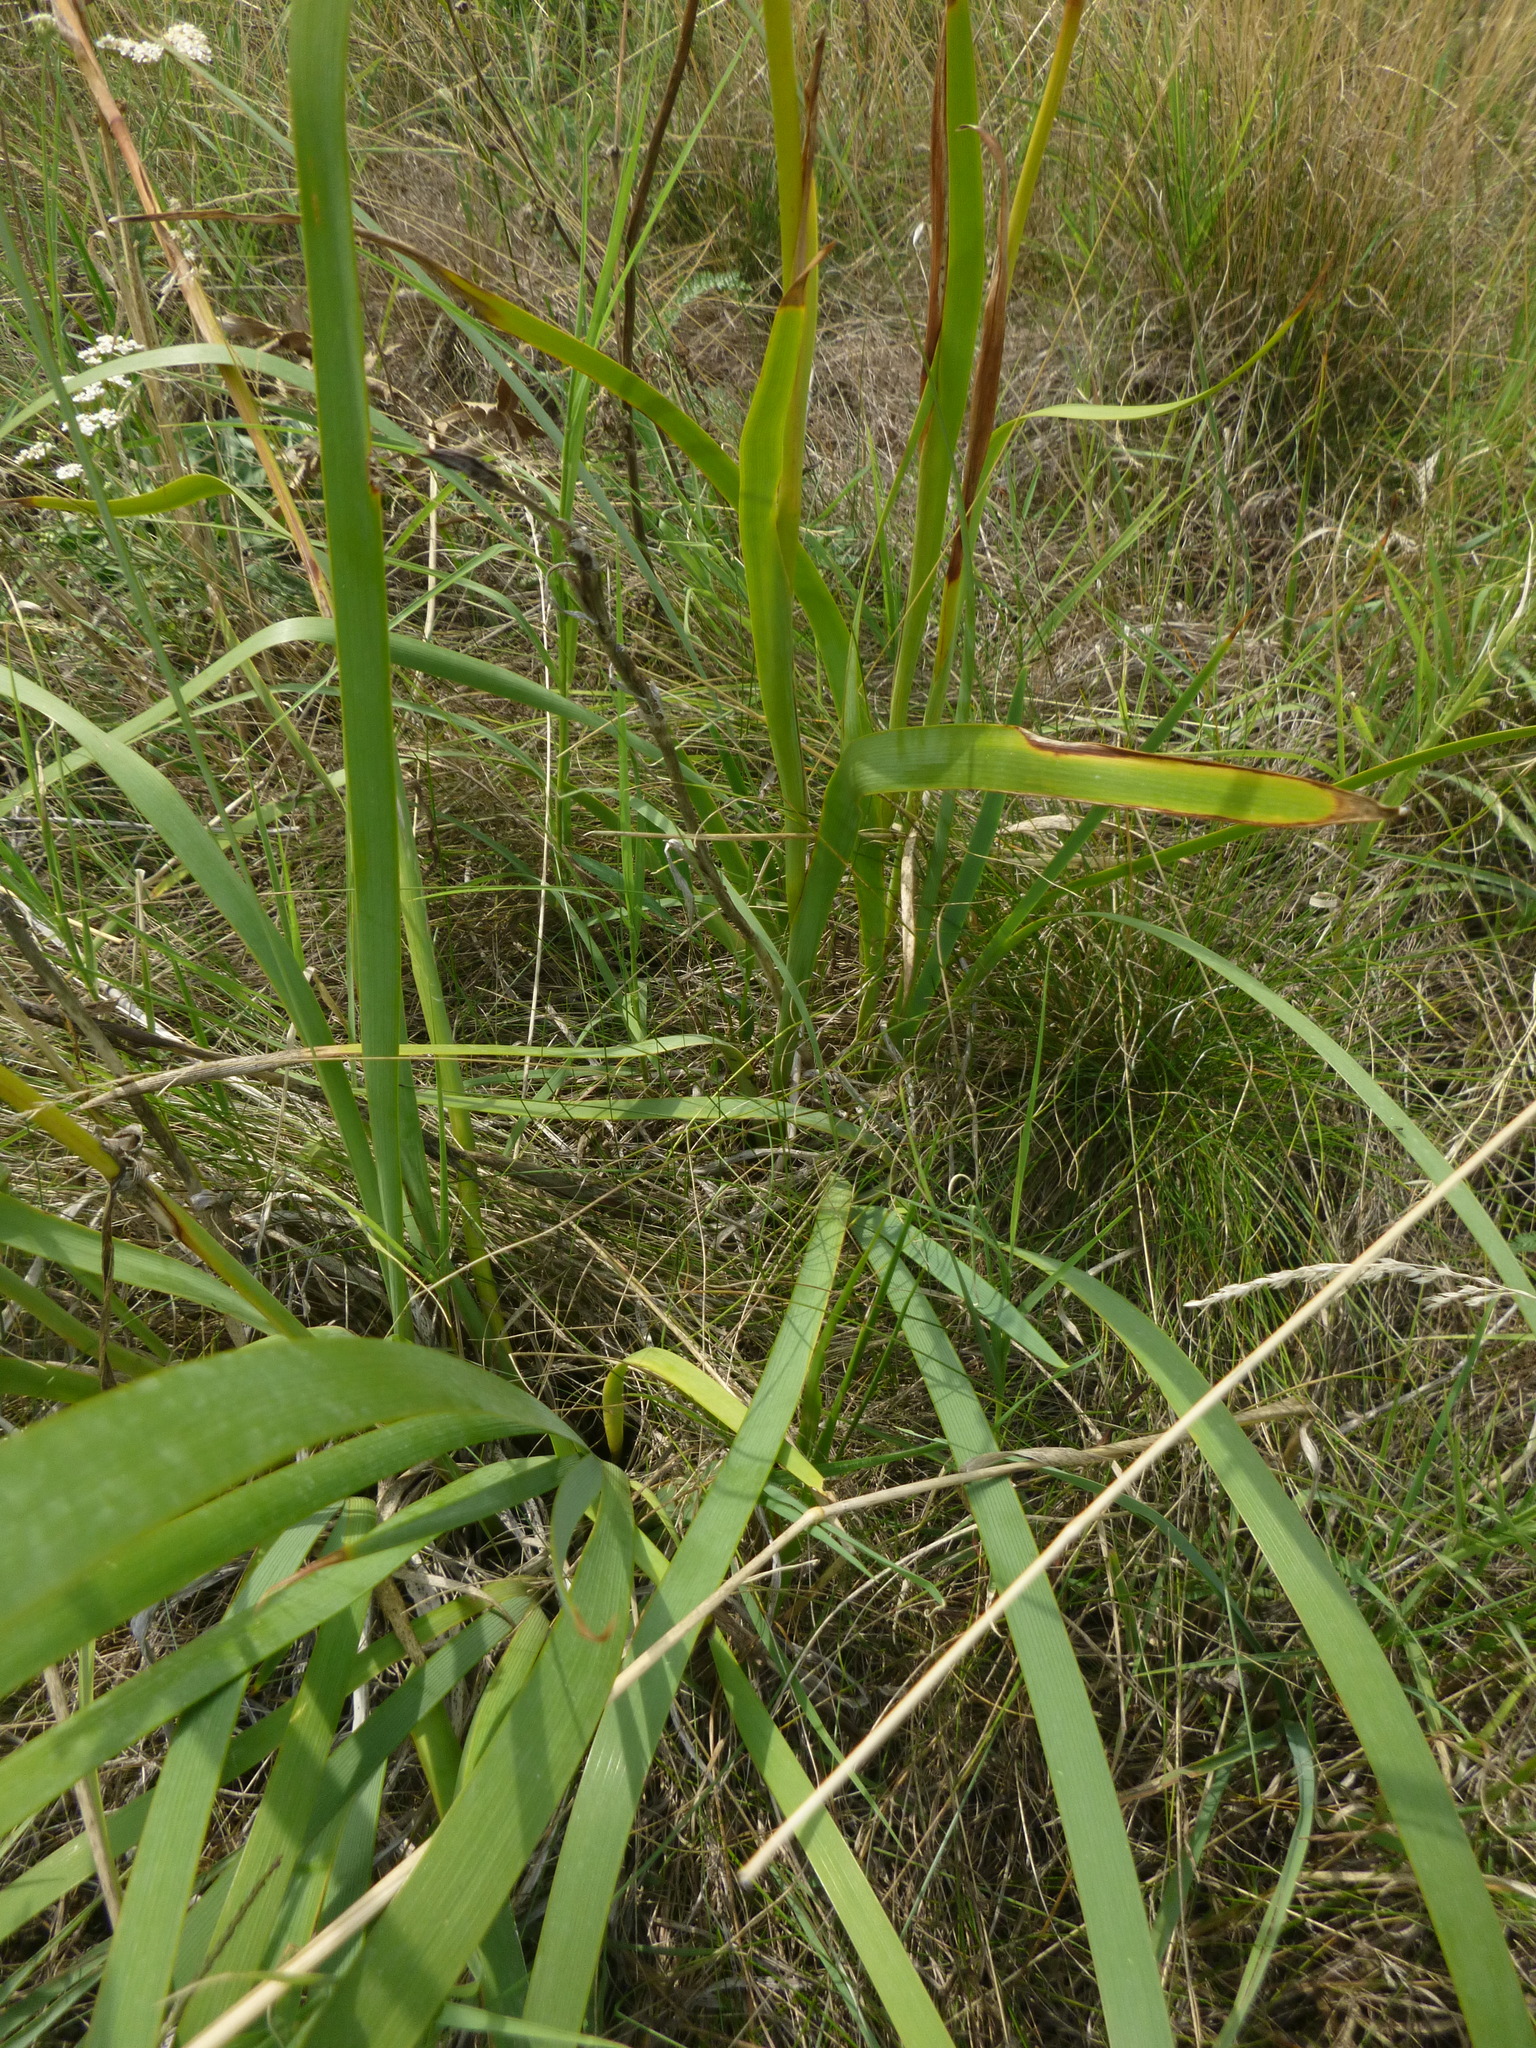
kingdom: Plantae
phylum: Tracheophyta
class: Liliopsida
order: Asparagales
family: Iridaceae
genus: Iris
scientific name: Iris spuria
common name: Blue iris
